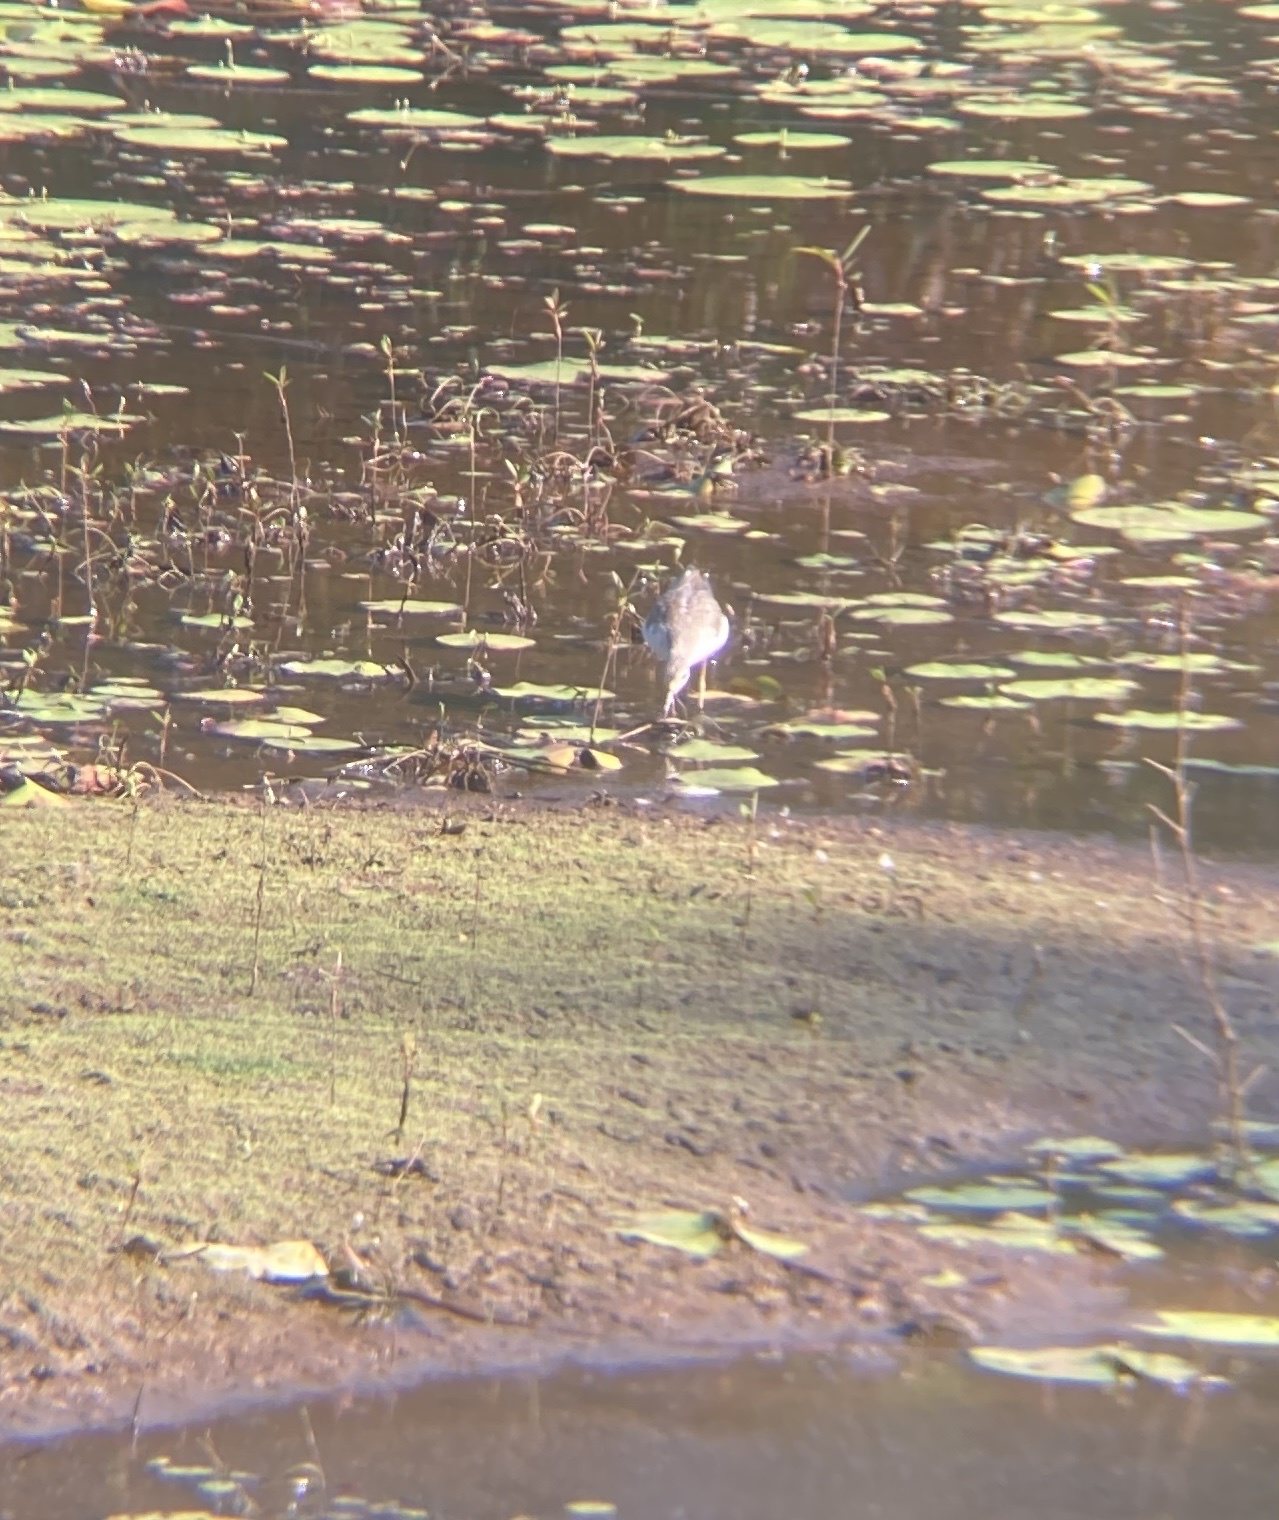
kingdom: Animalia
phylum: Chordata
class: Aves
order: Charadriiformes
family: Scolopacidae
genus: Tringa
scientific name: Tringa nebularia
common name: Common greenshank
